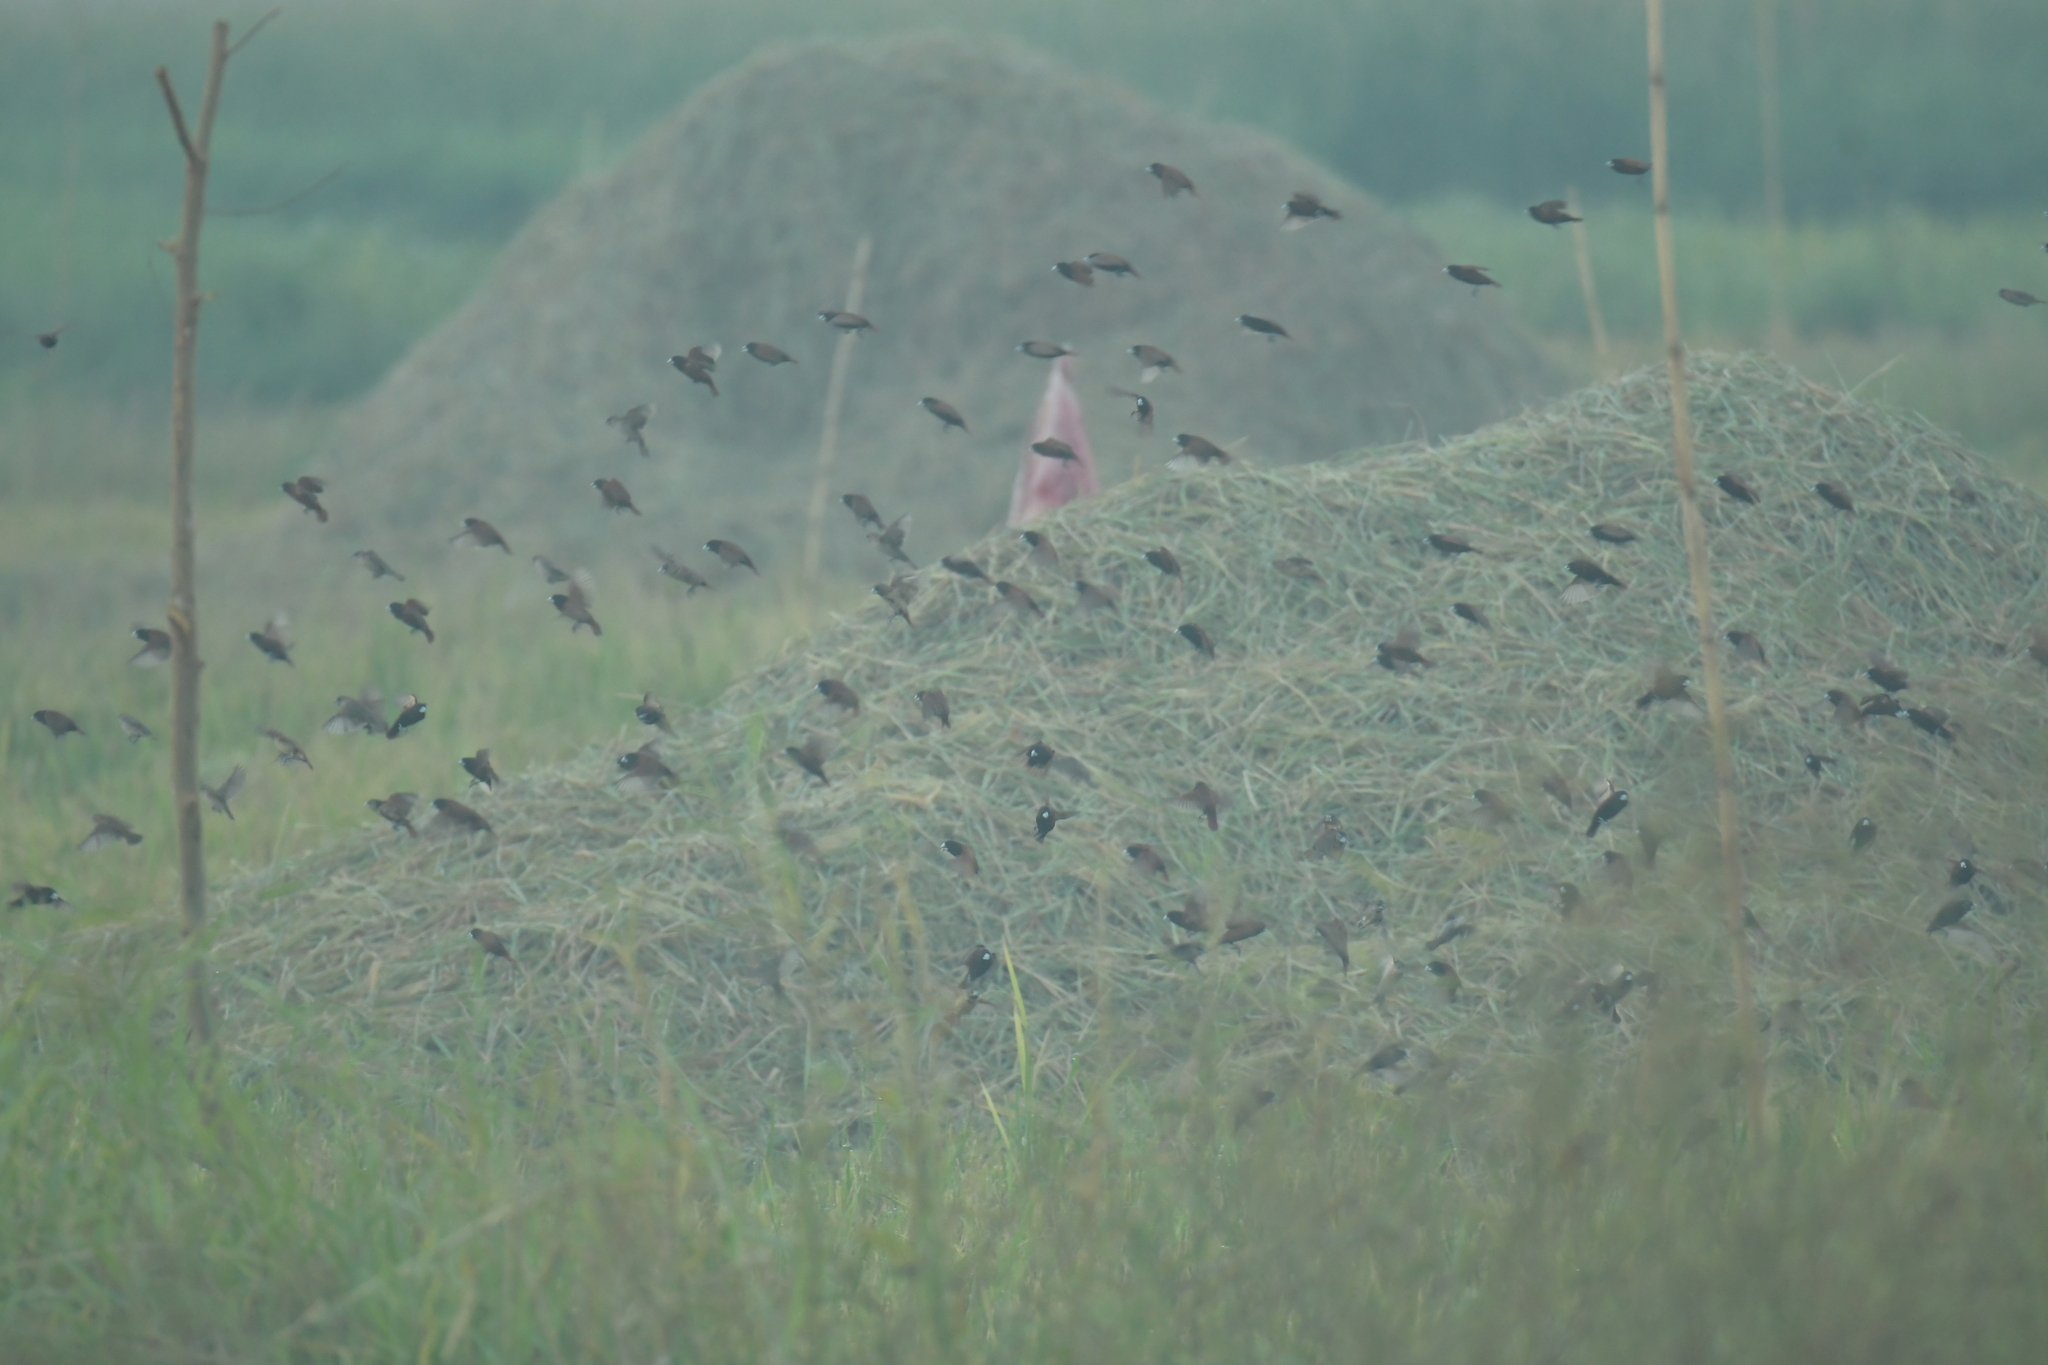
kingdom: Animalia
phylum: Chordata
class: Aves
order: Passeriformes
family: Estrildidae
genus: Lonchura
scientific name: Lonchura atricapilla
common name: Chestnut munia
